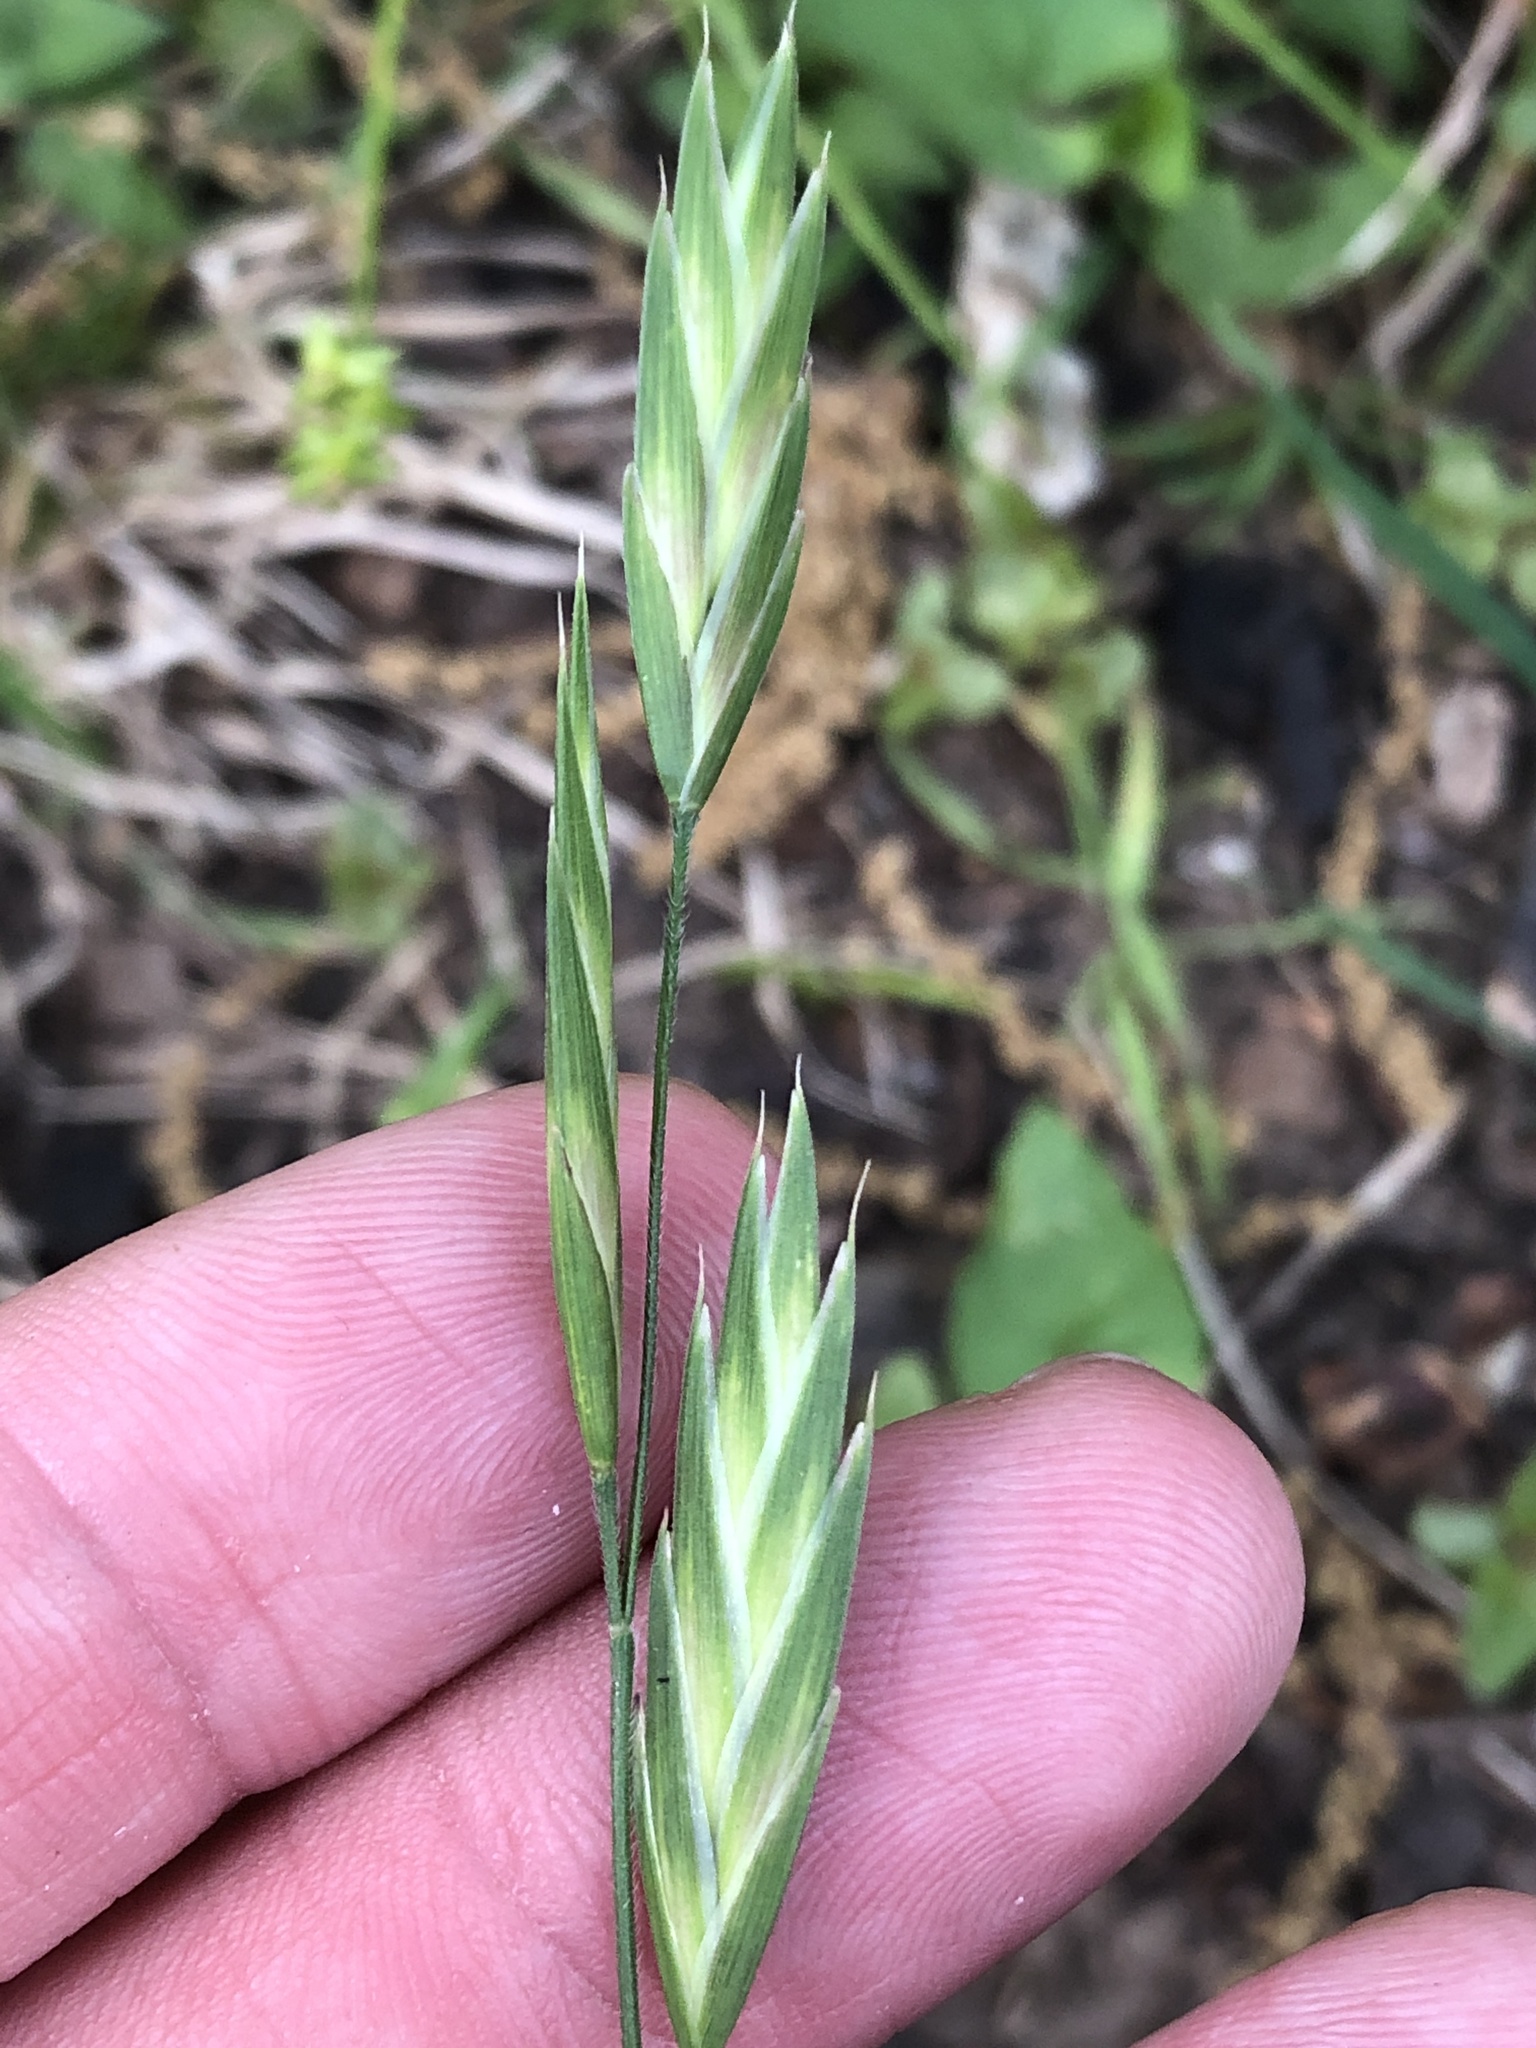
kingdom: Plantae
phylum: Tracheophyta
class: Liliopsida
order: Poales
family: Poaceae
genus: Bromus
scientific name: Bromus catharticus
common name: Rescuegrass
